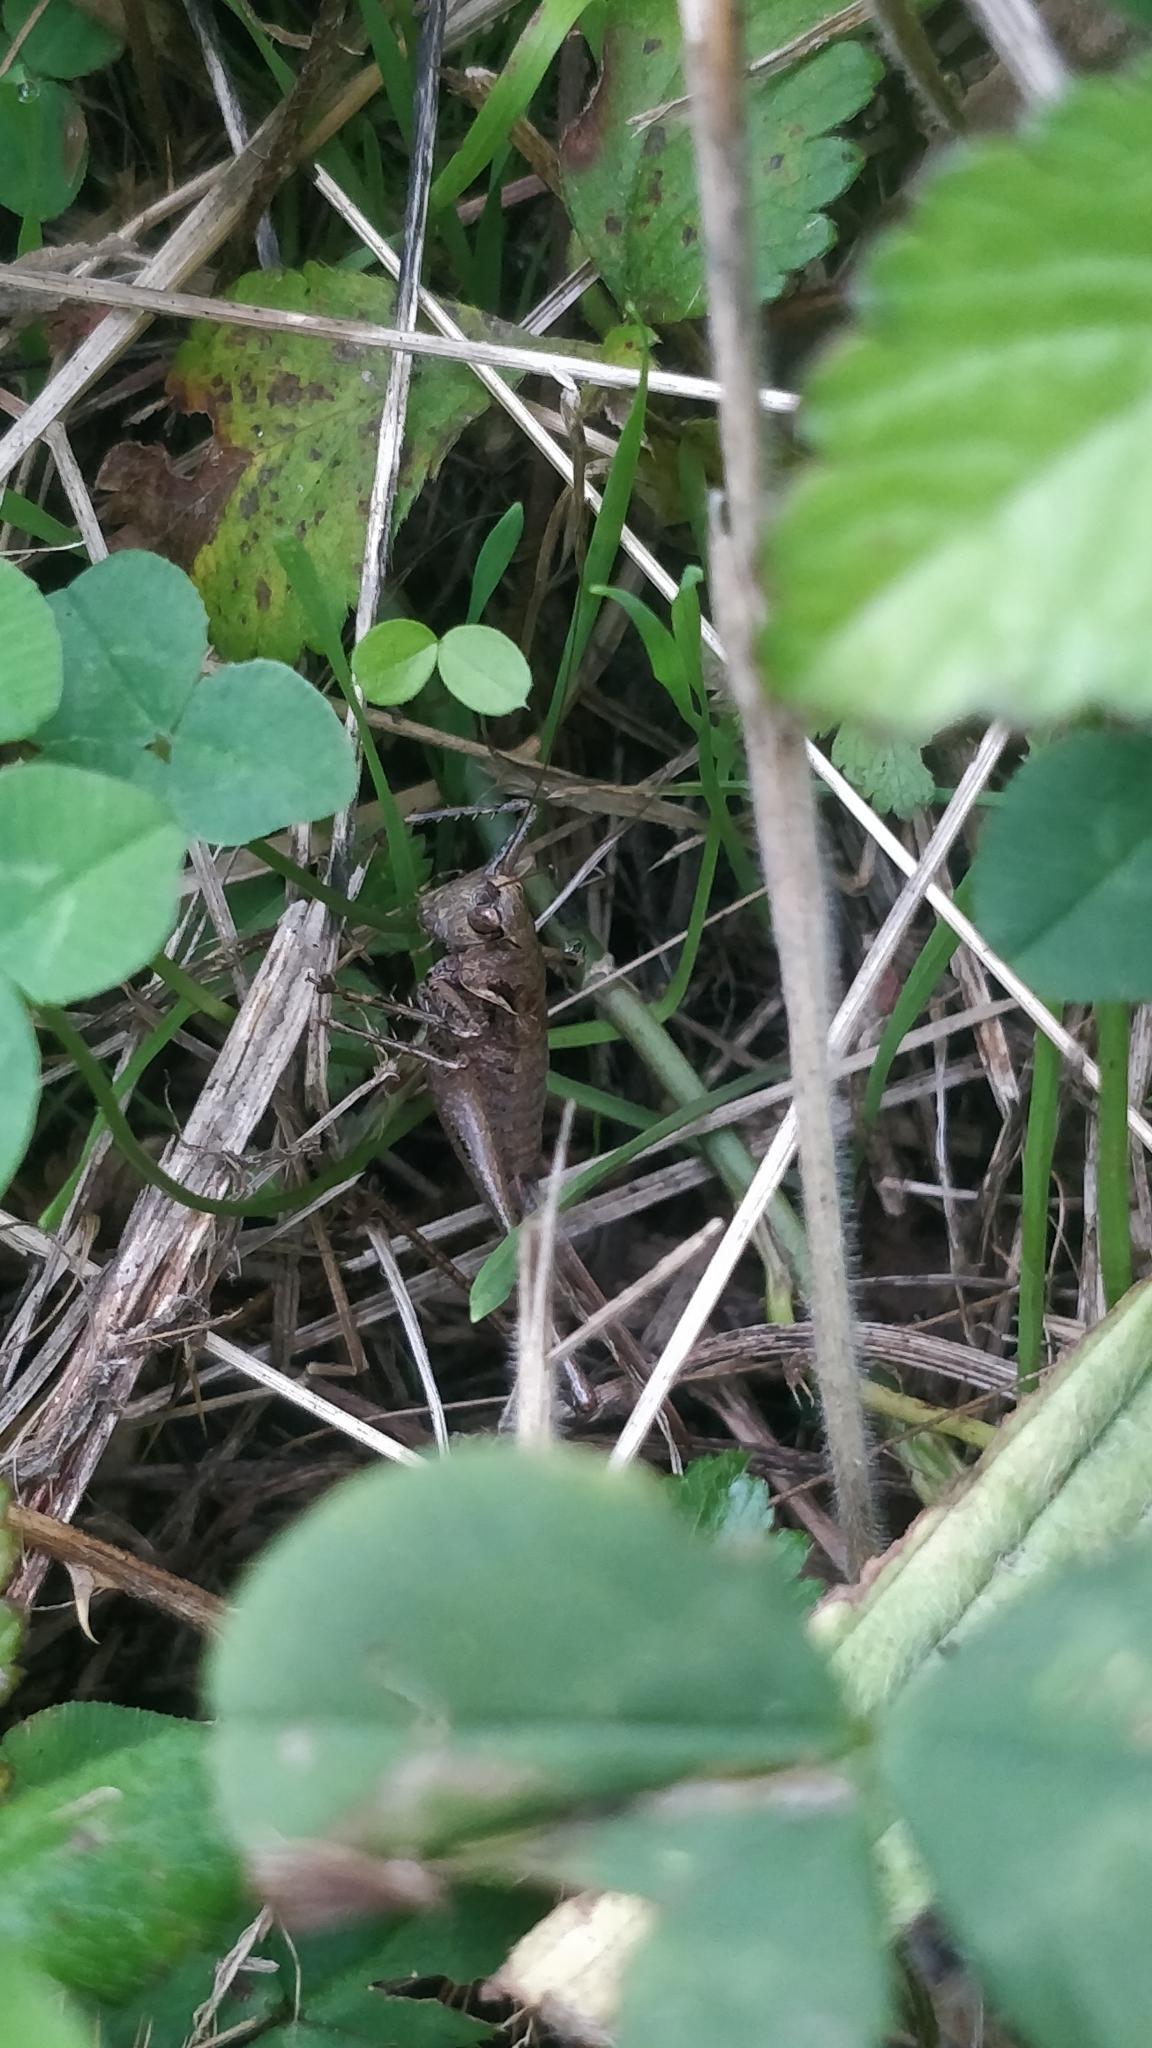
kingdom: Animalia
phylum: Arthropoda
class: Insecta
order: Orthoptera
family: Tettigoniidae
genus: Antaxius
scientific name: Antaxius spinibrachius
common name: Spiny-legged bush-cricket
